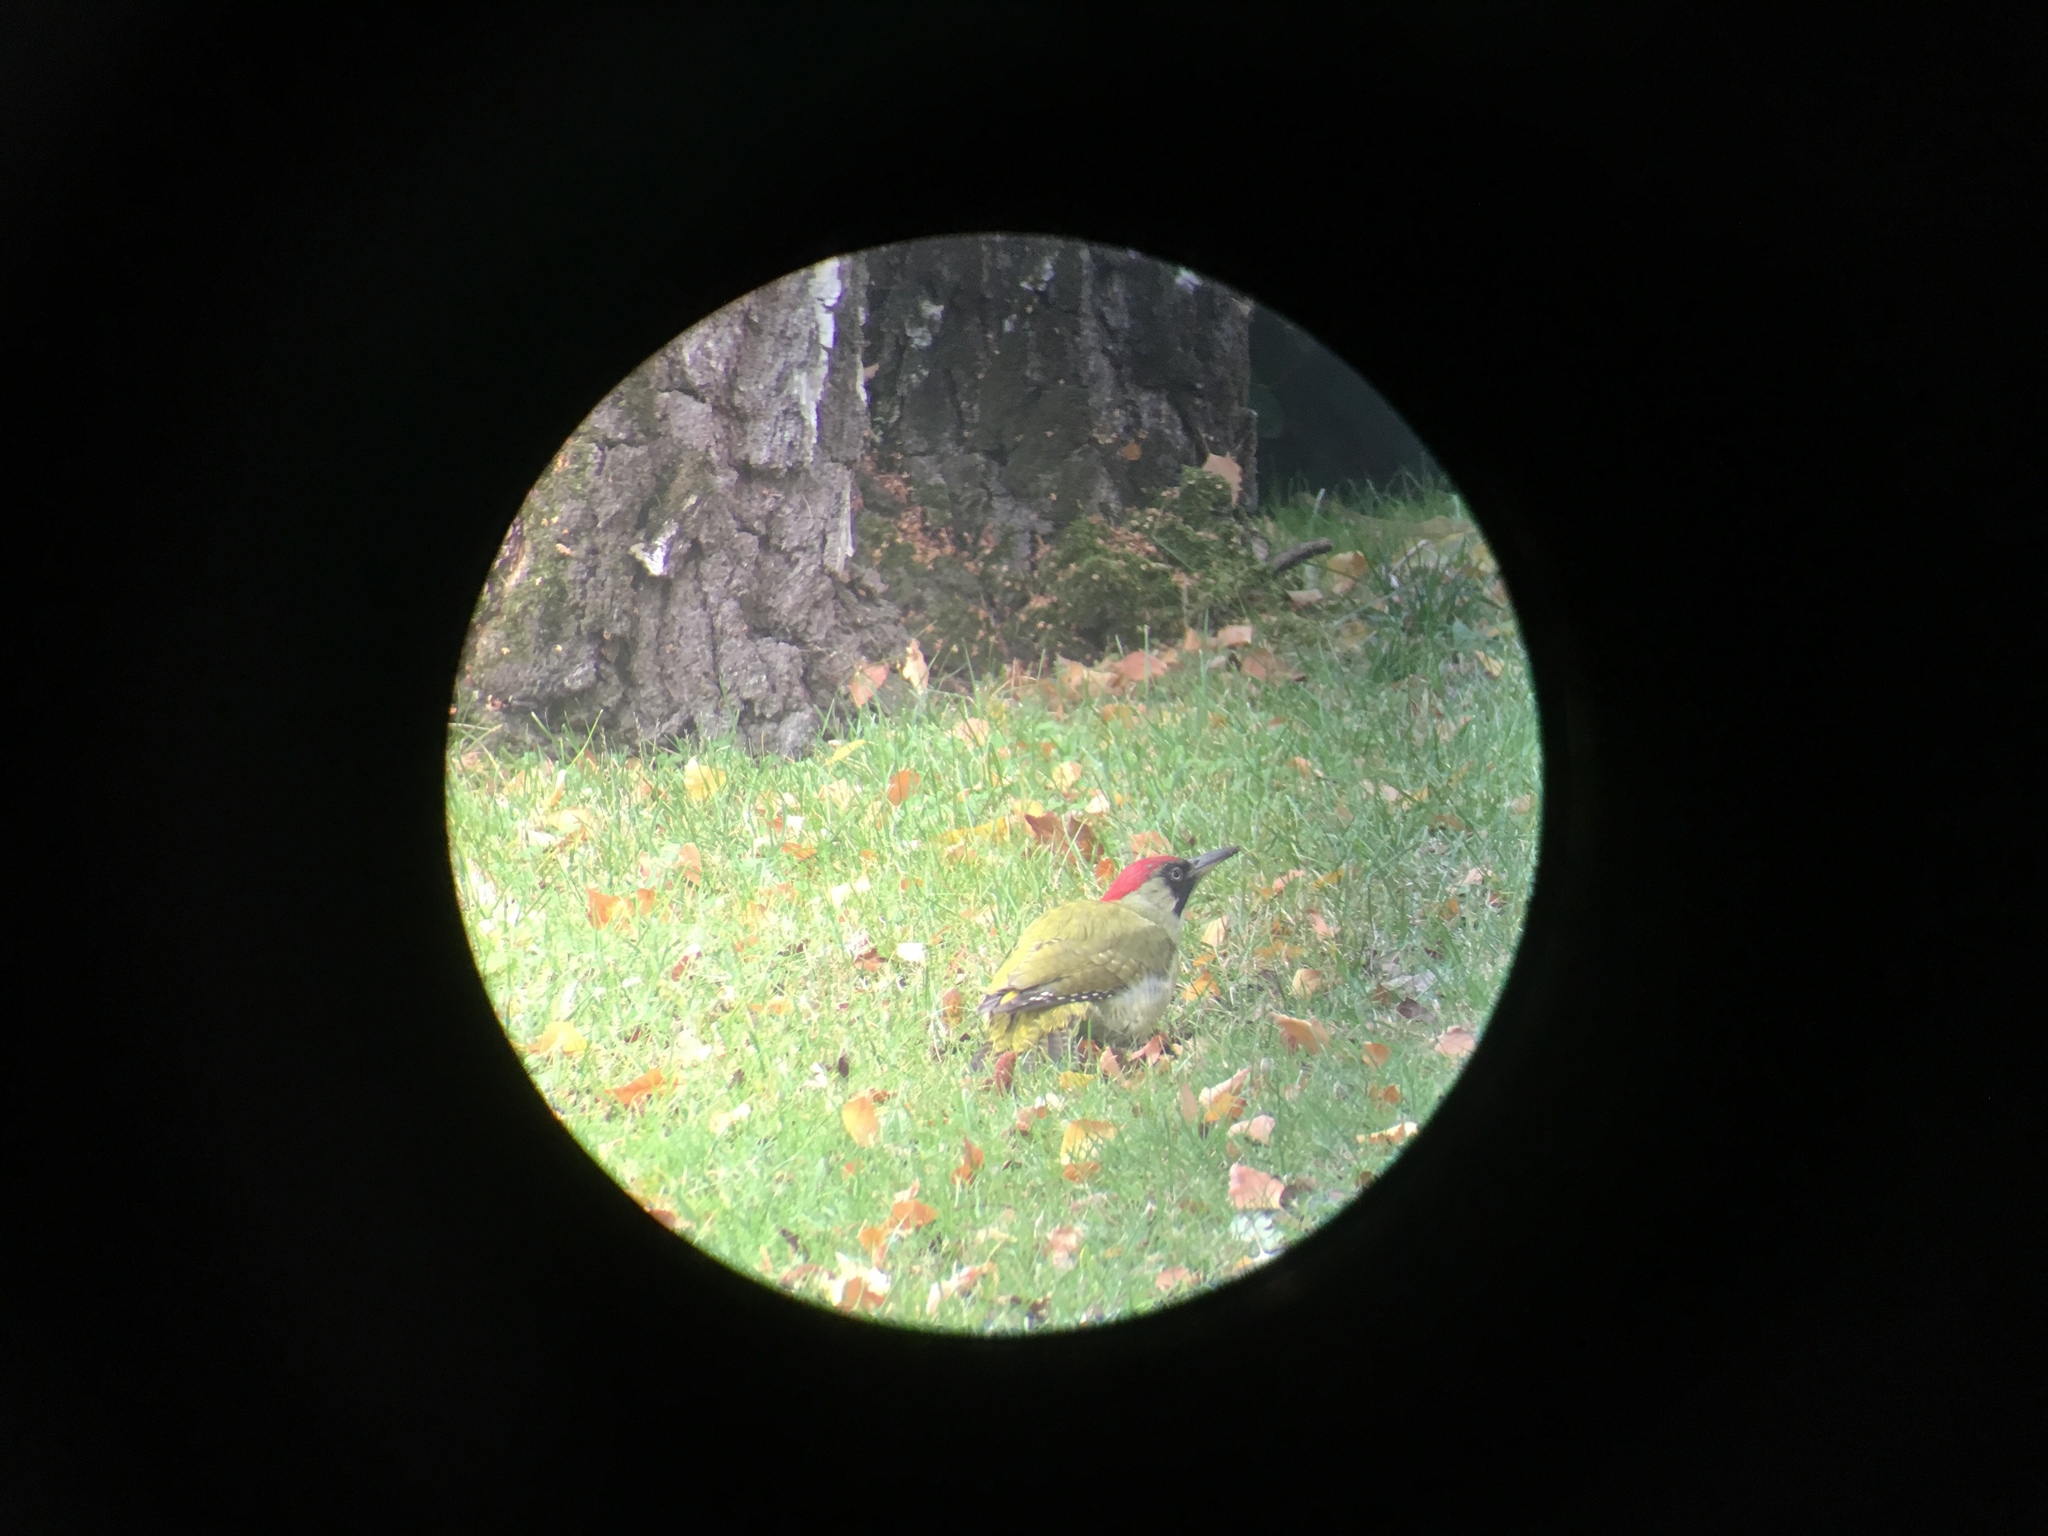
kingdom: Animalia
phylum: Chordata
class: Aves
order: Piciformes
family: Picidae
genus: Picus
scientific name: Picus viridis
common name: European green woodpecker
